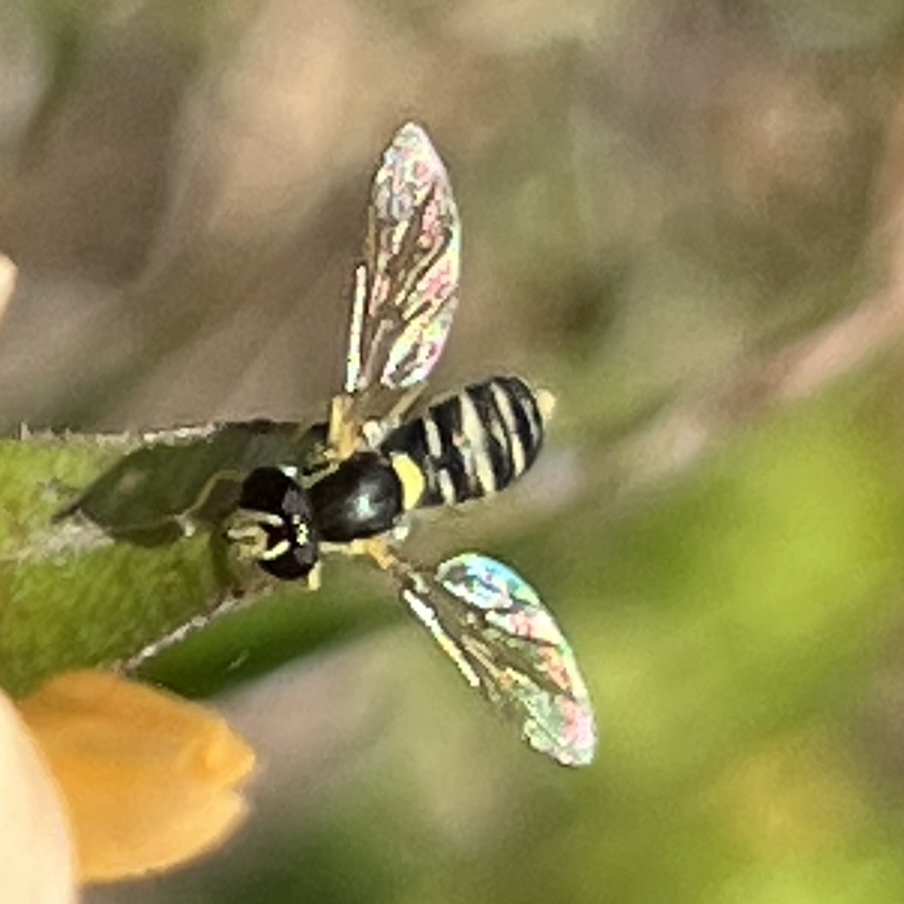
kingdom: Animalia
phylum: Arthropoda
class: Insecta
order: Diptera
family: Syrphidae
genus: Sphaerophoria
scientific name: Sphaerophoria sulphuripes
